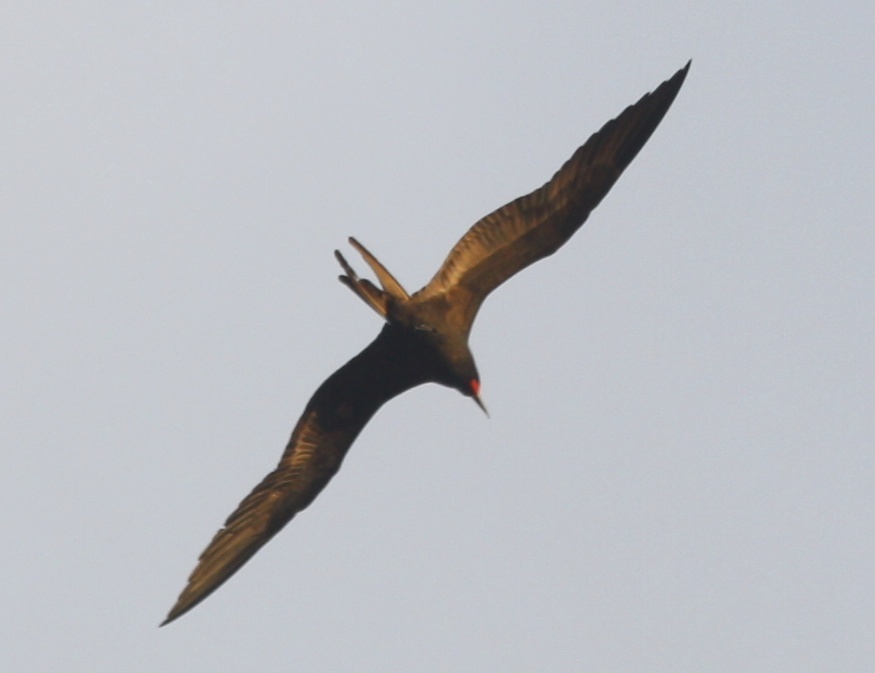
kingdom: Animalia
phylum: Chordata
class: Aves
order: Suliformes
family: Fregatidae
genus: Fregata
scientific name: Fregata magnificens
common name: Magnificent frigatebird
